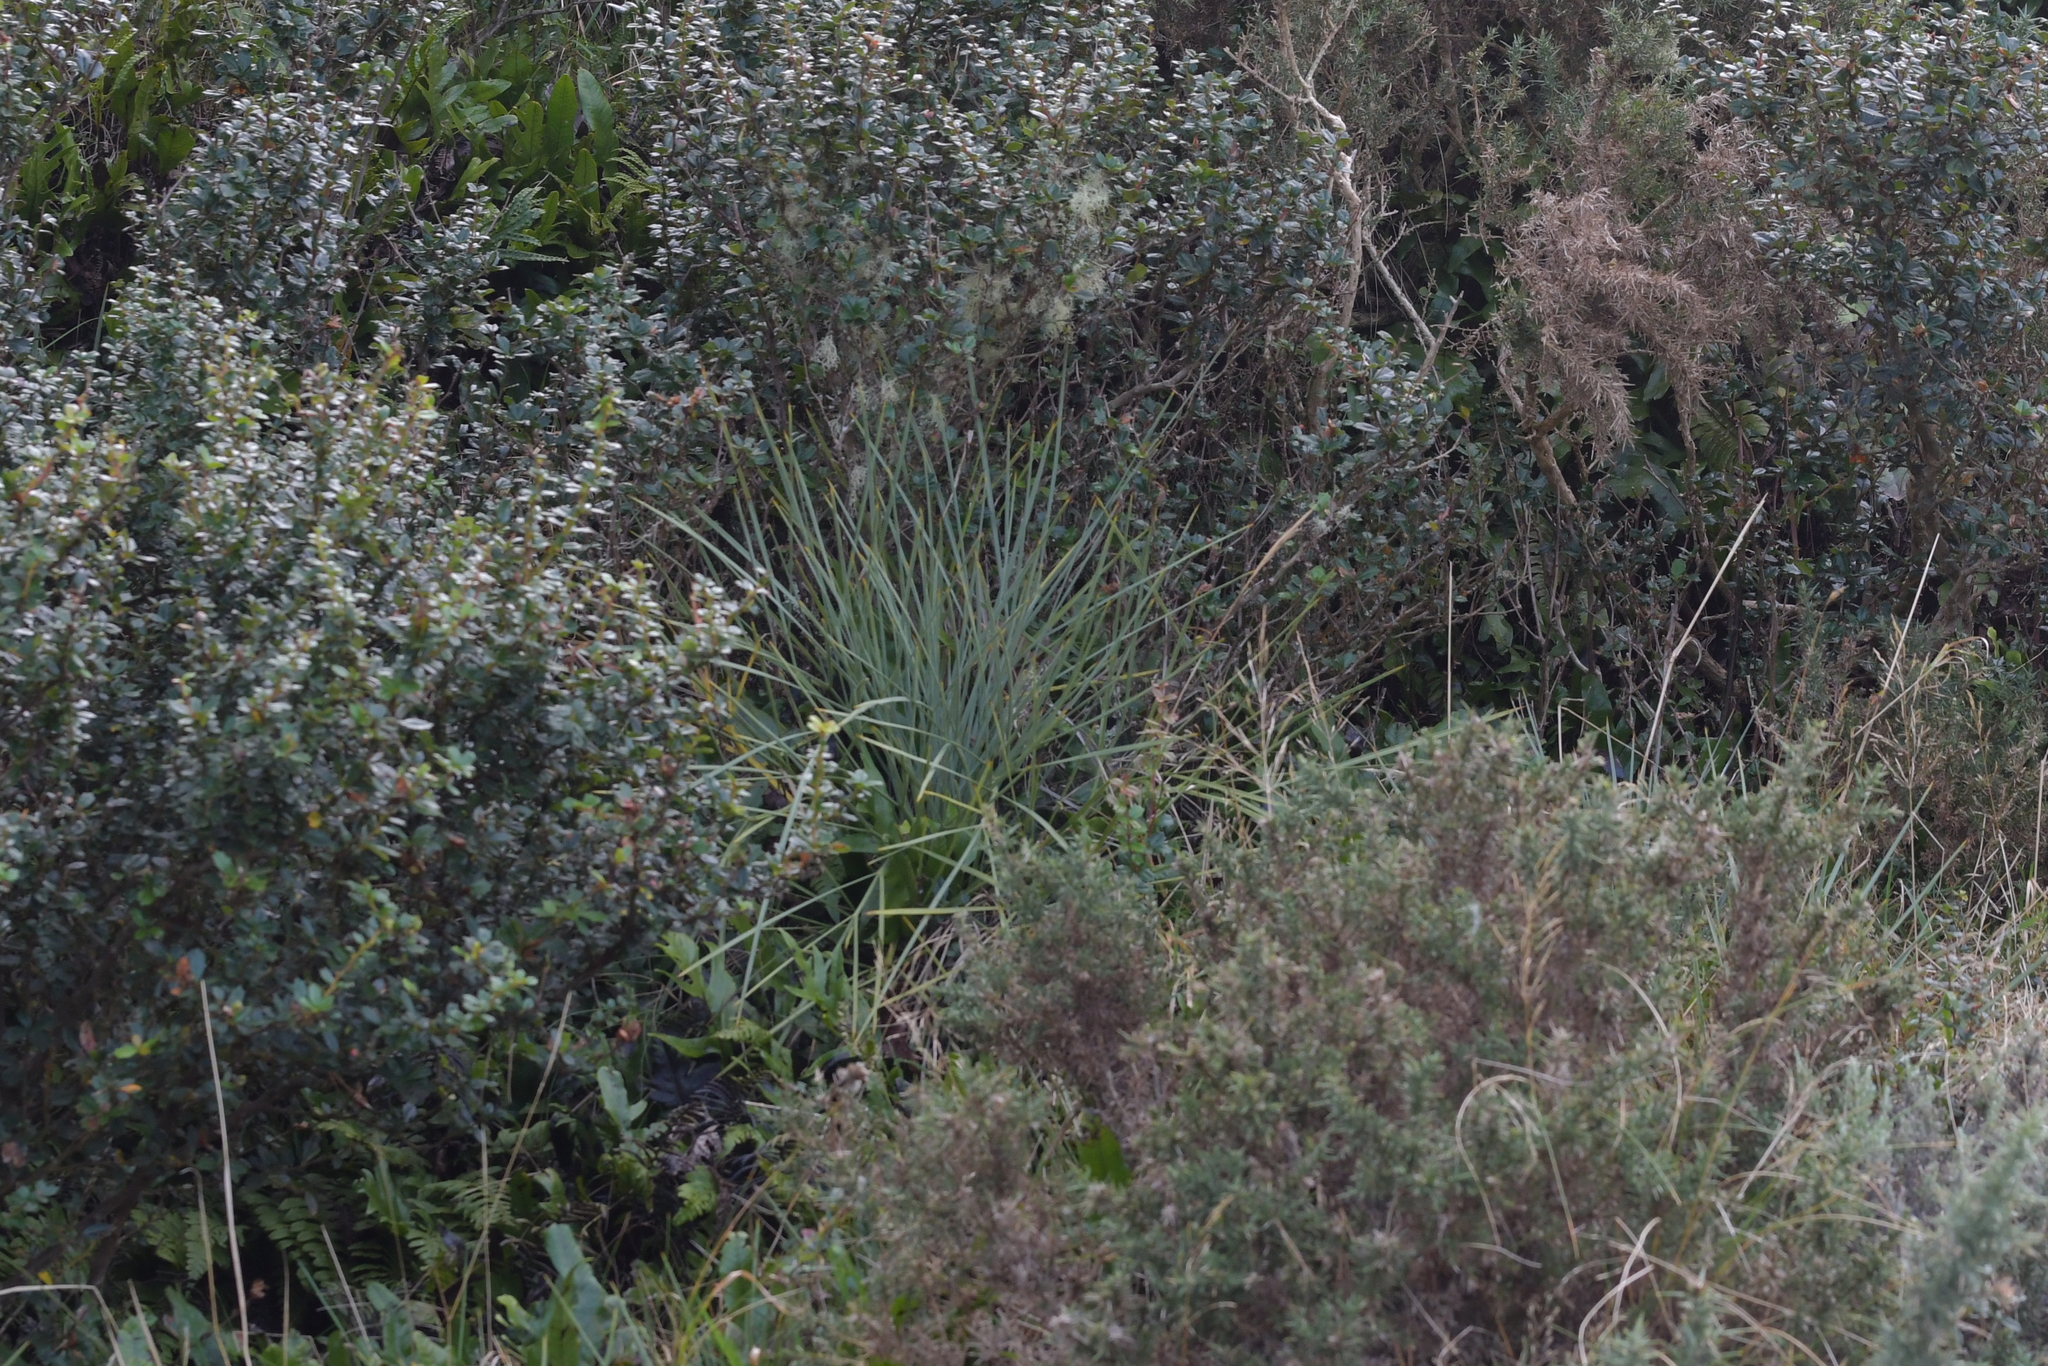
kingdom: Plantae
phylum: Tracheophyta
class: Magnoliopsida
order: Apiales
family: Apiaceae
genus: Aciphylla
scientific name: Aciphylla squarrosa
